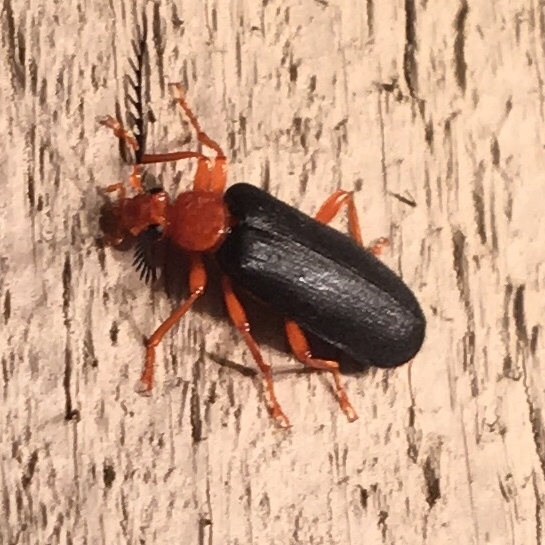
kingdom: Animalia
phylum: Arthropoda
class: Insecta
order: Coleoptera
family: Pyrochroidae
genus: Neopyrochroa
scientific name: Neopyrochroa flabellata
